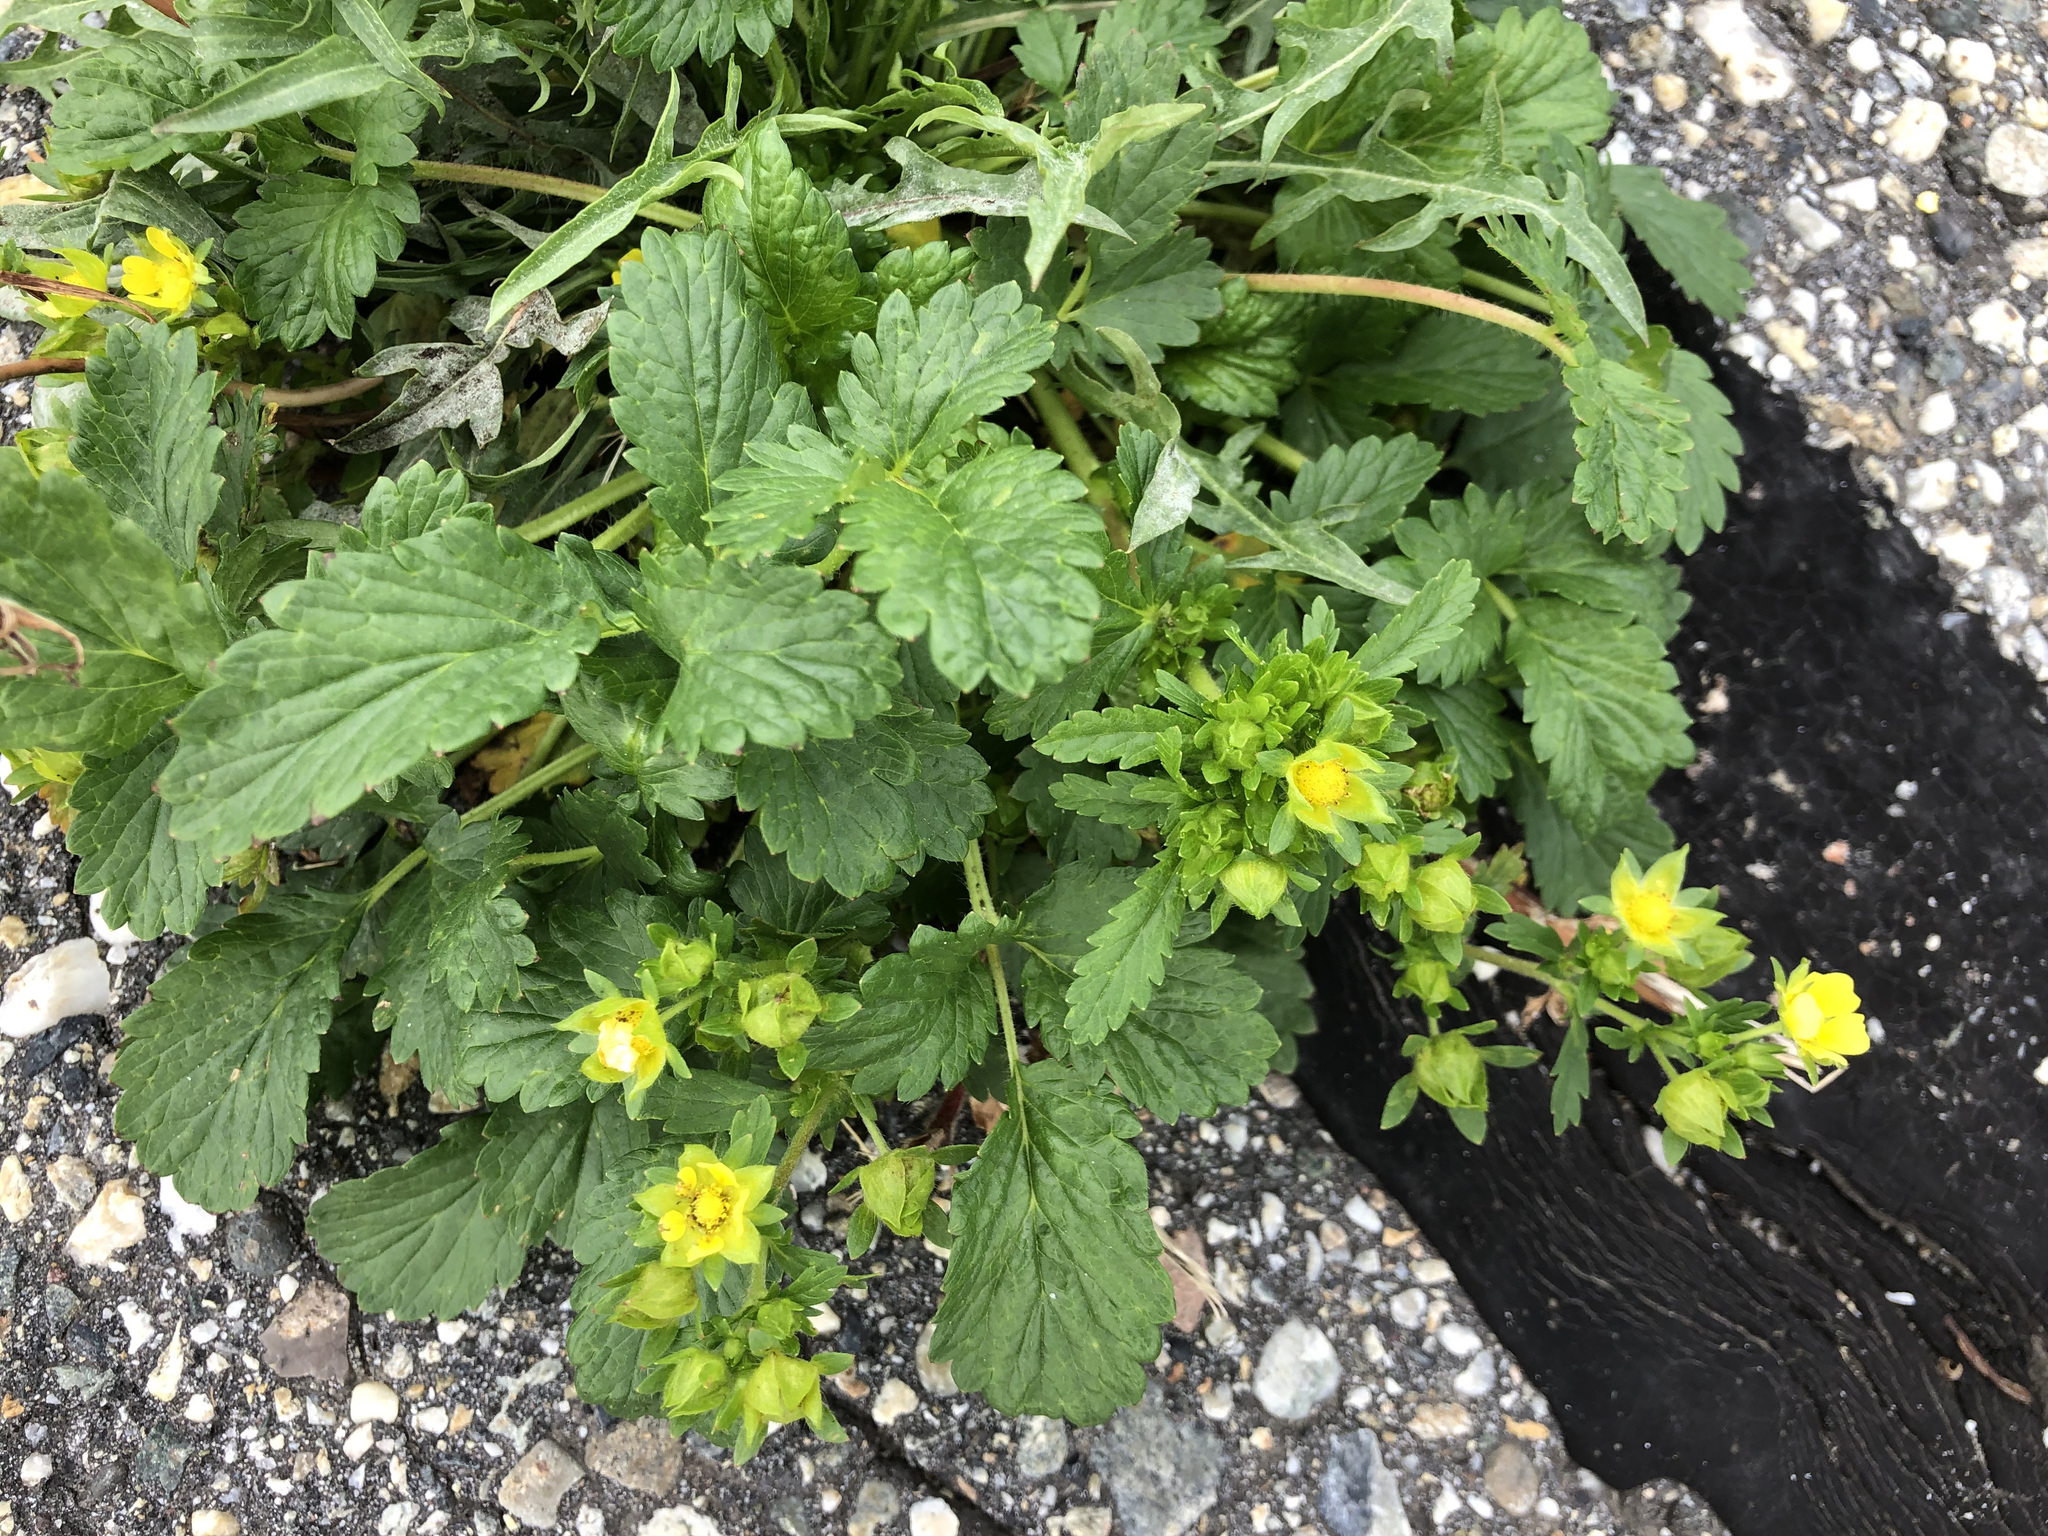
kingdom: Plantae
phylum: Tracheophyta
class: Magnoliopsida
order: Rosales
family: Rosaceae
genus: Potentilla
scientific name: Potentilla norvegica
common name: Ternate-leaved cinquefoil
